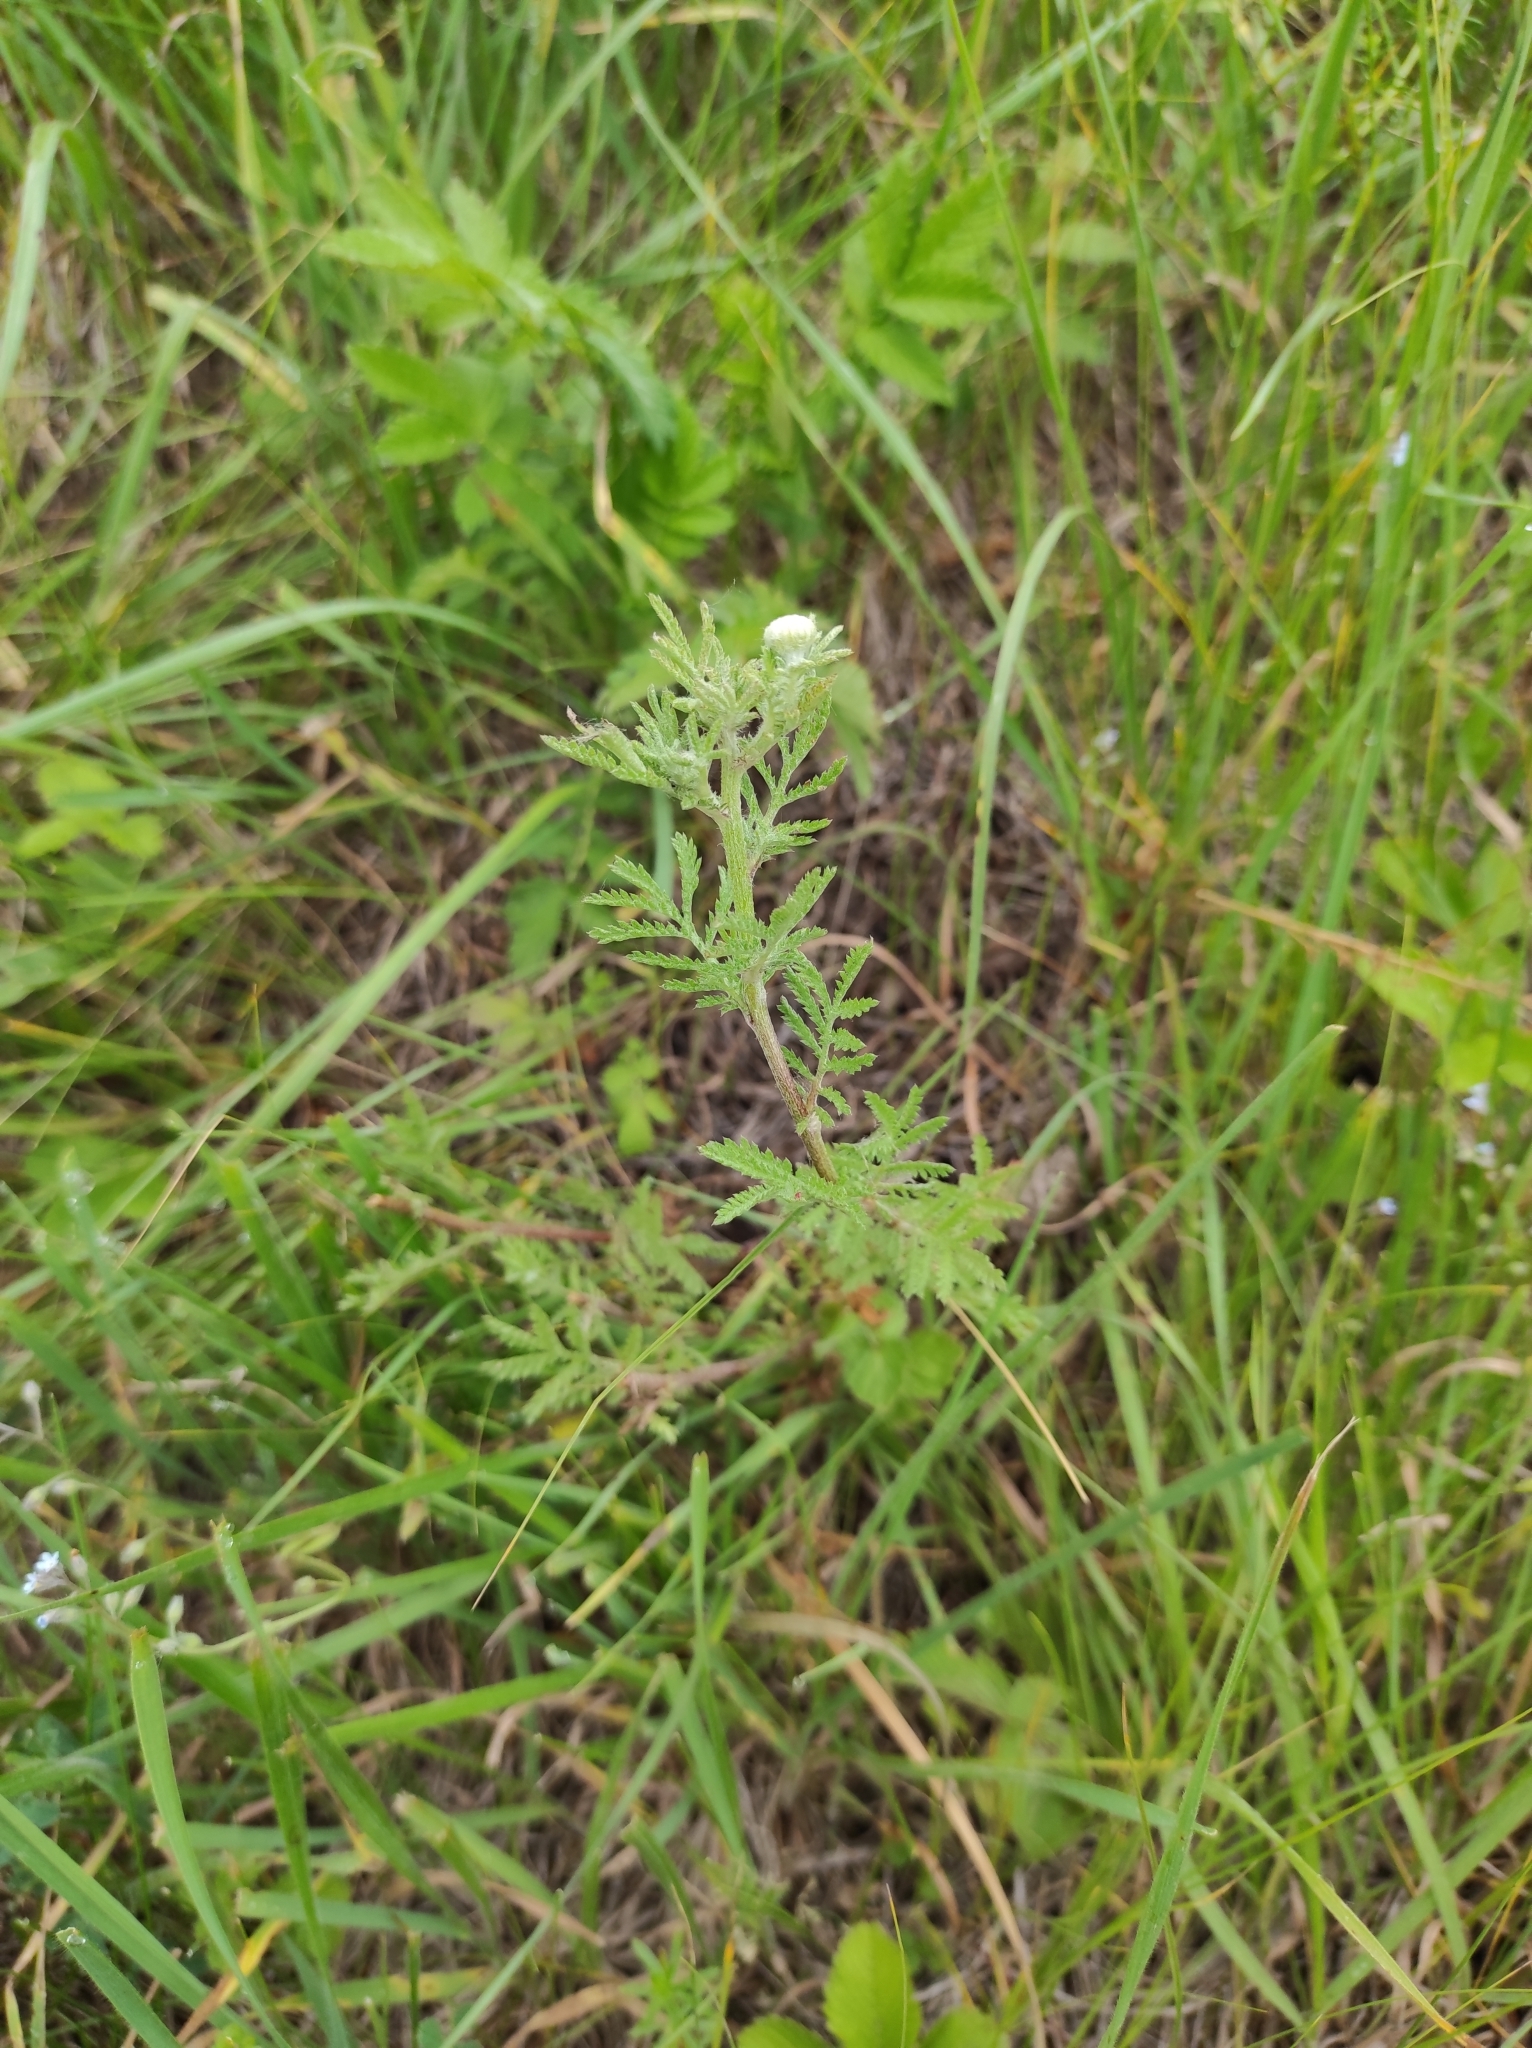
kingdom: Plantae
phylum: Tracheophyta
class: Magnoliopsida
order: Asterales
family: Asteraceae
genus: Cota
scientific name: Cota tinctoria
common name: Golden chamomile
